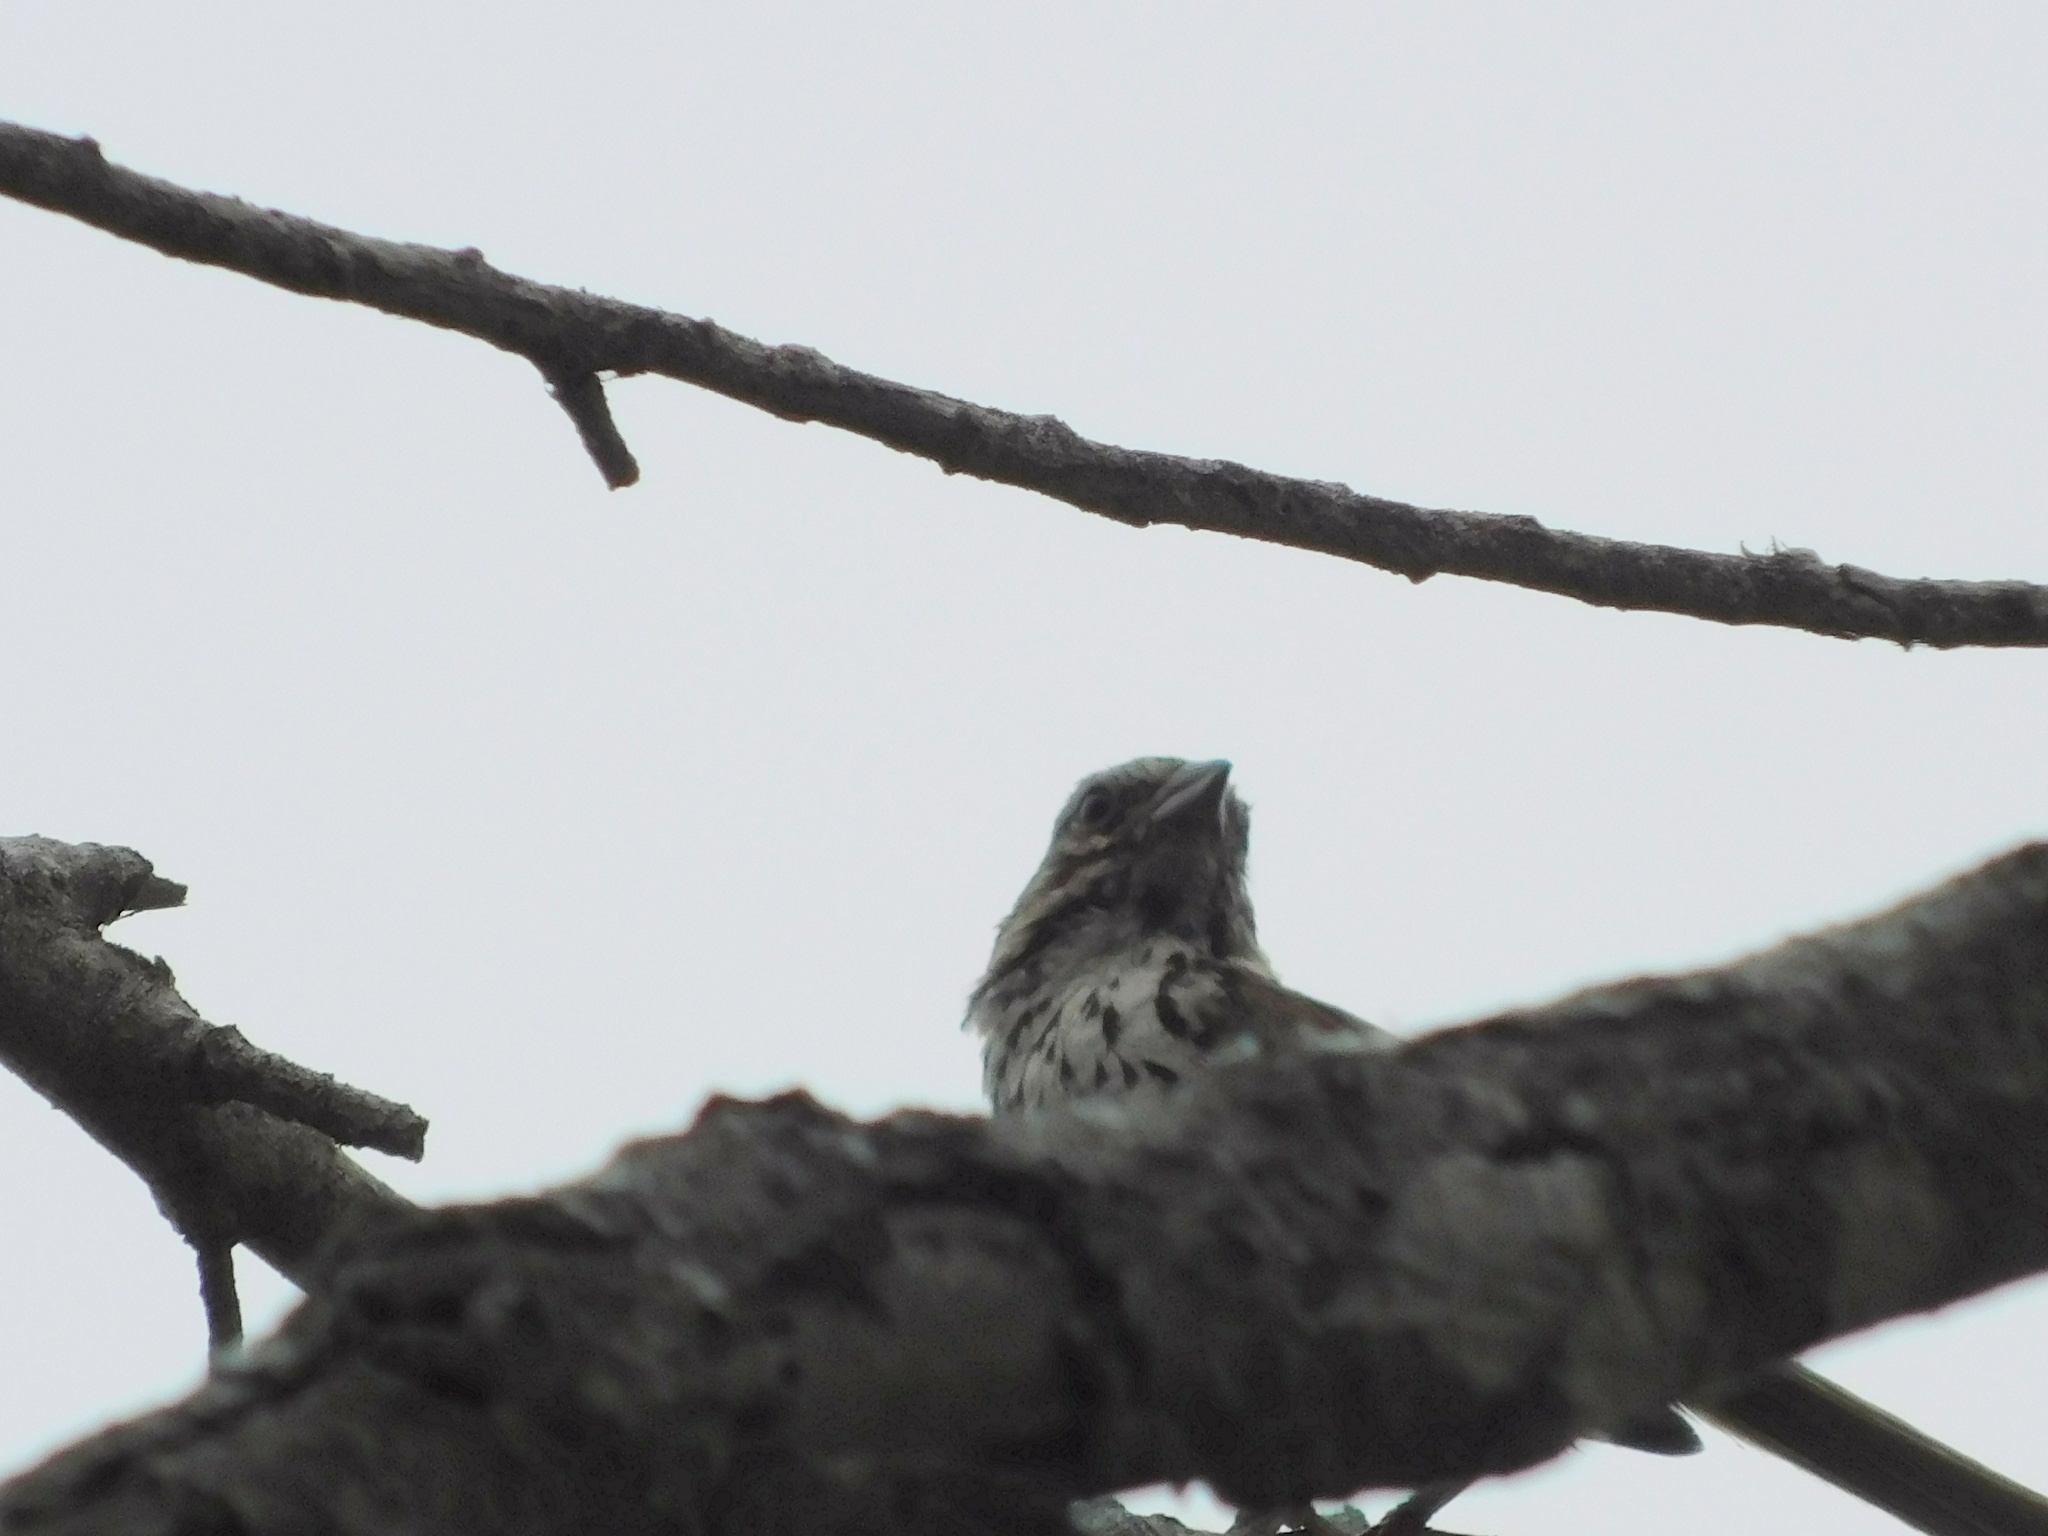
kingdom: Animalia
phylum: Chordata
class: Aves
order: Passeriformes
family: Passerellidae
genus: Melospiza
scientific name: Melospiza melodia
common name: Song sparrow
